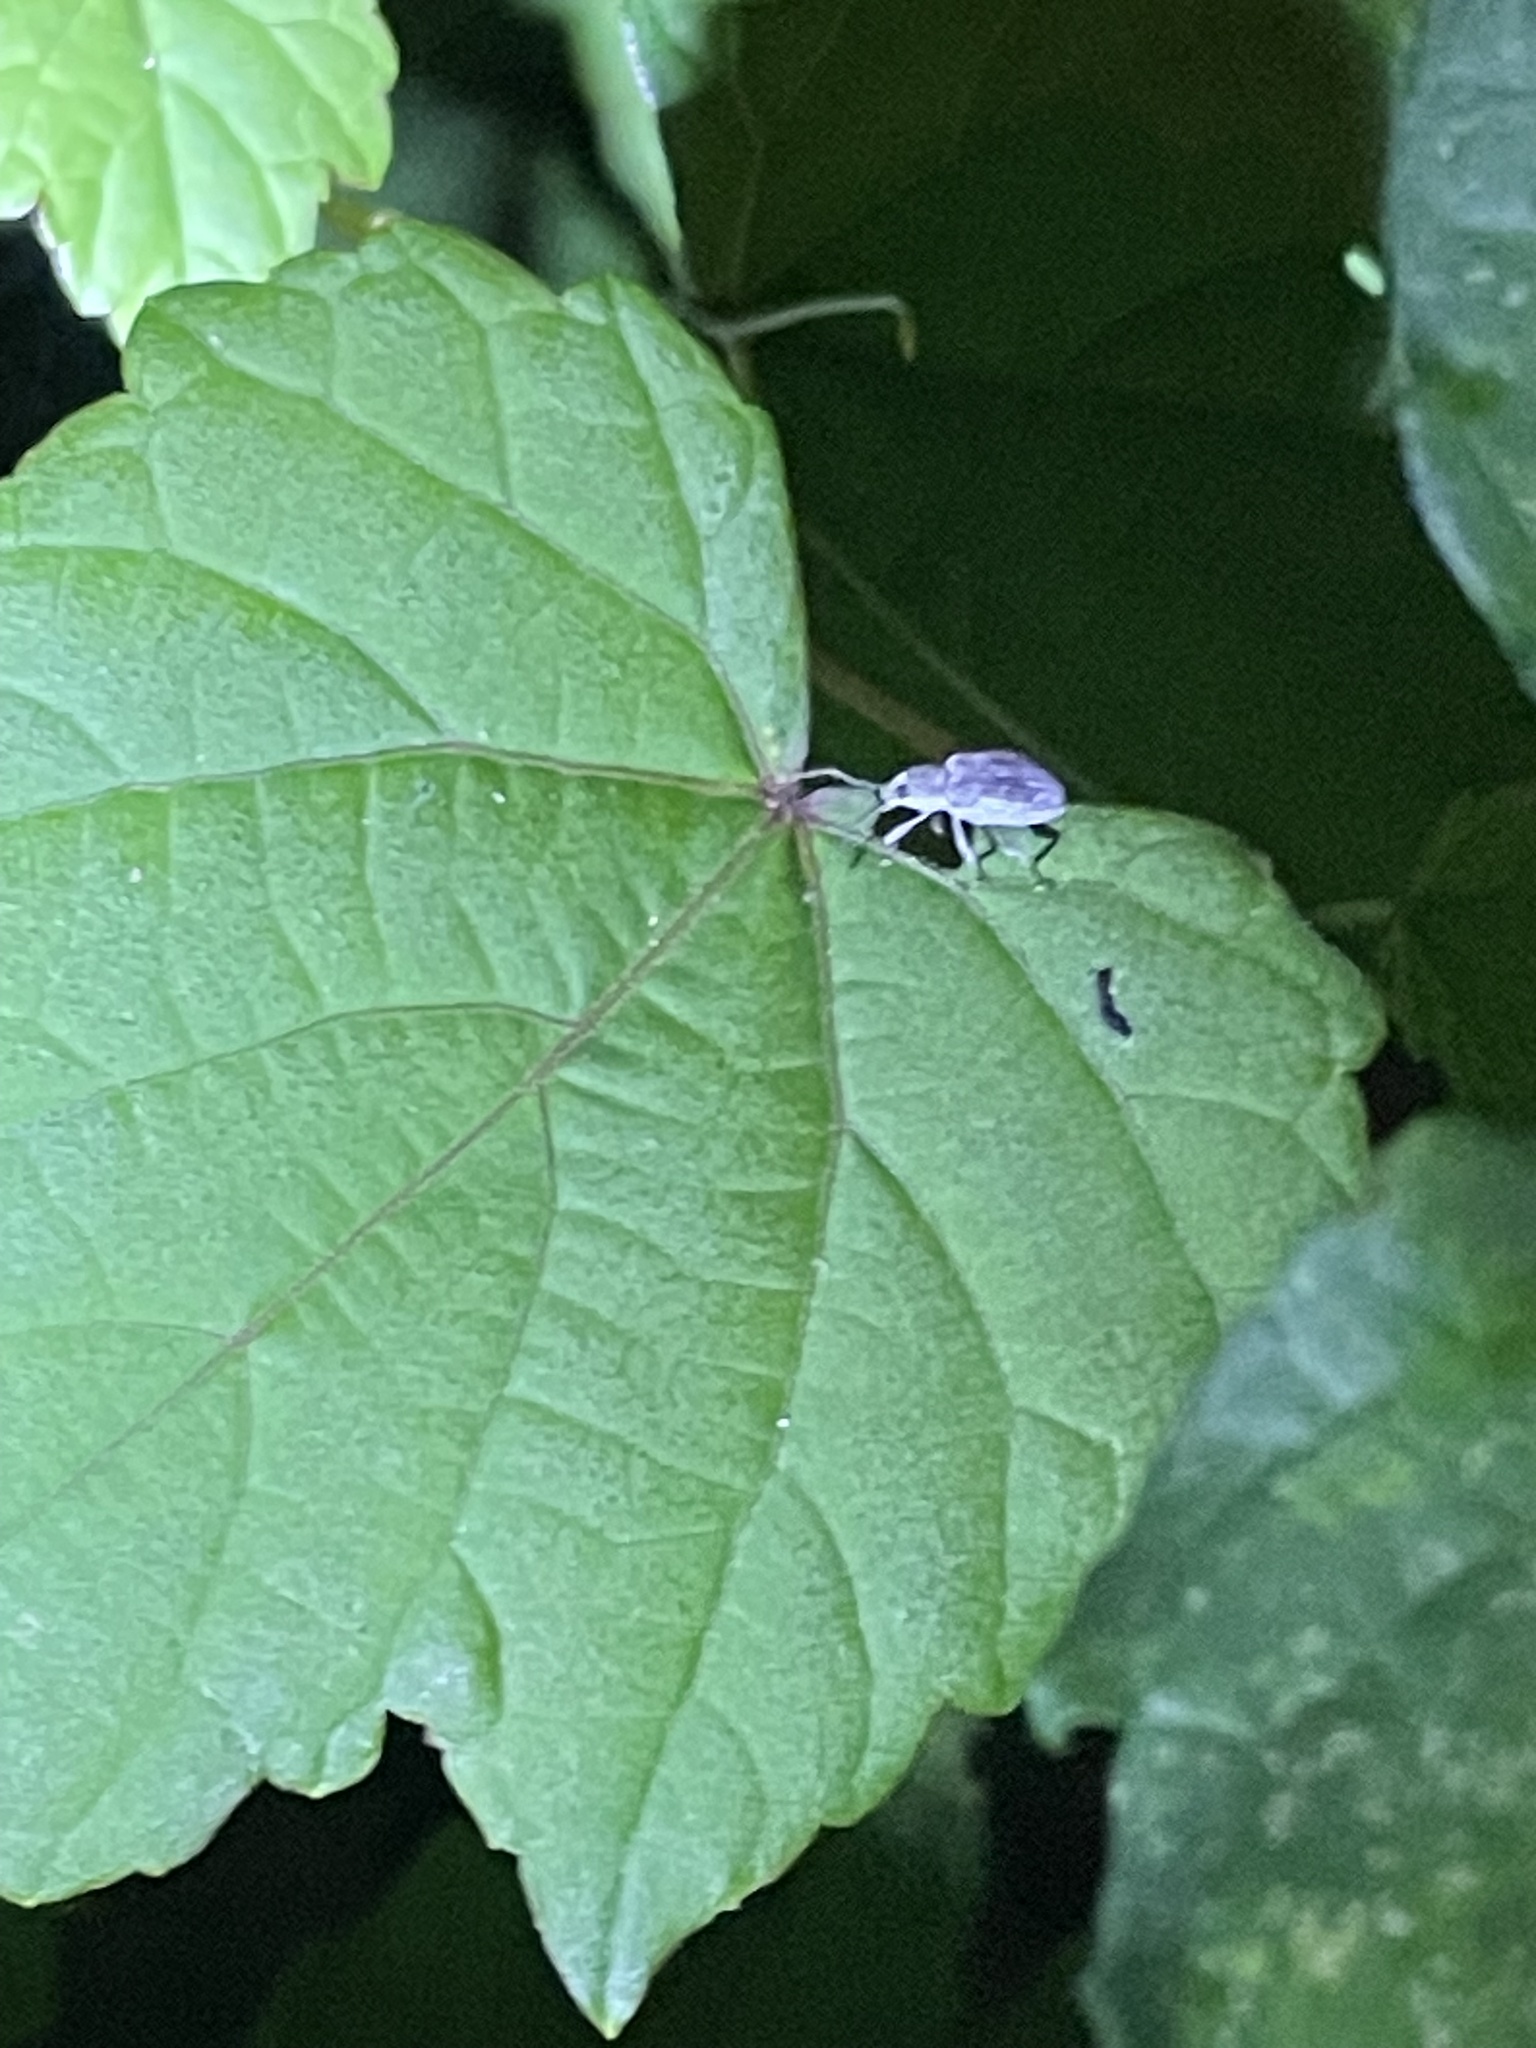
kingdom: Animalia
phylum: Arthropoda
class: Insecta
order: Coleoptera
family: Curculionidae
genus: Cyrtepistomus
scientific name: Cyrtepistomus castaneus
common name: Weevil
